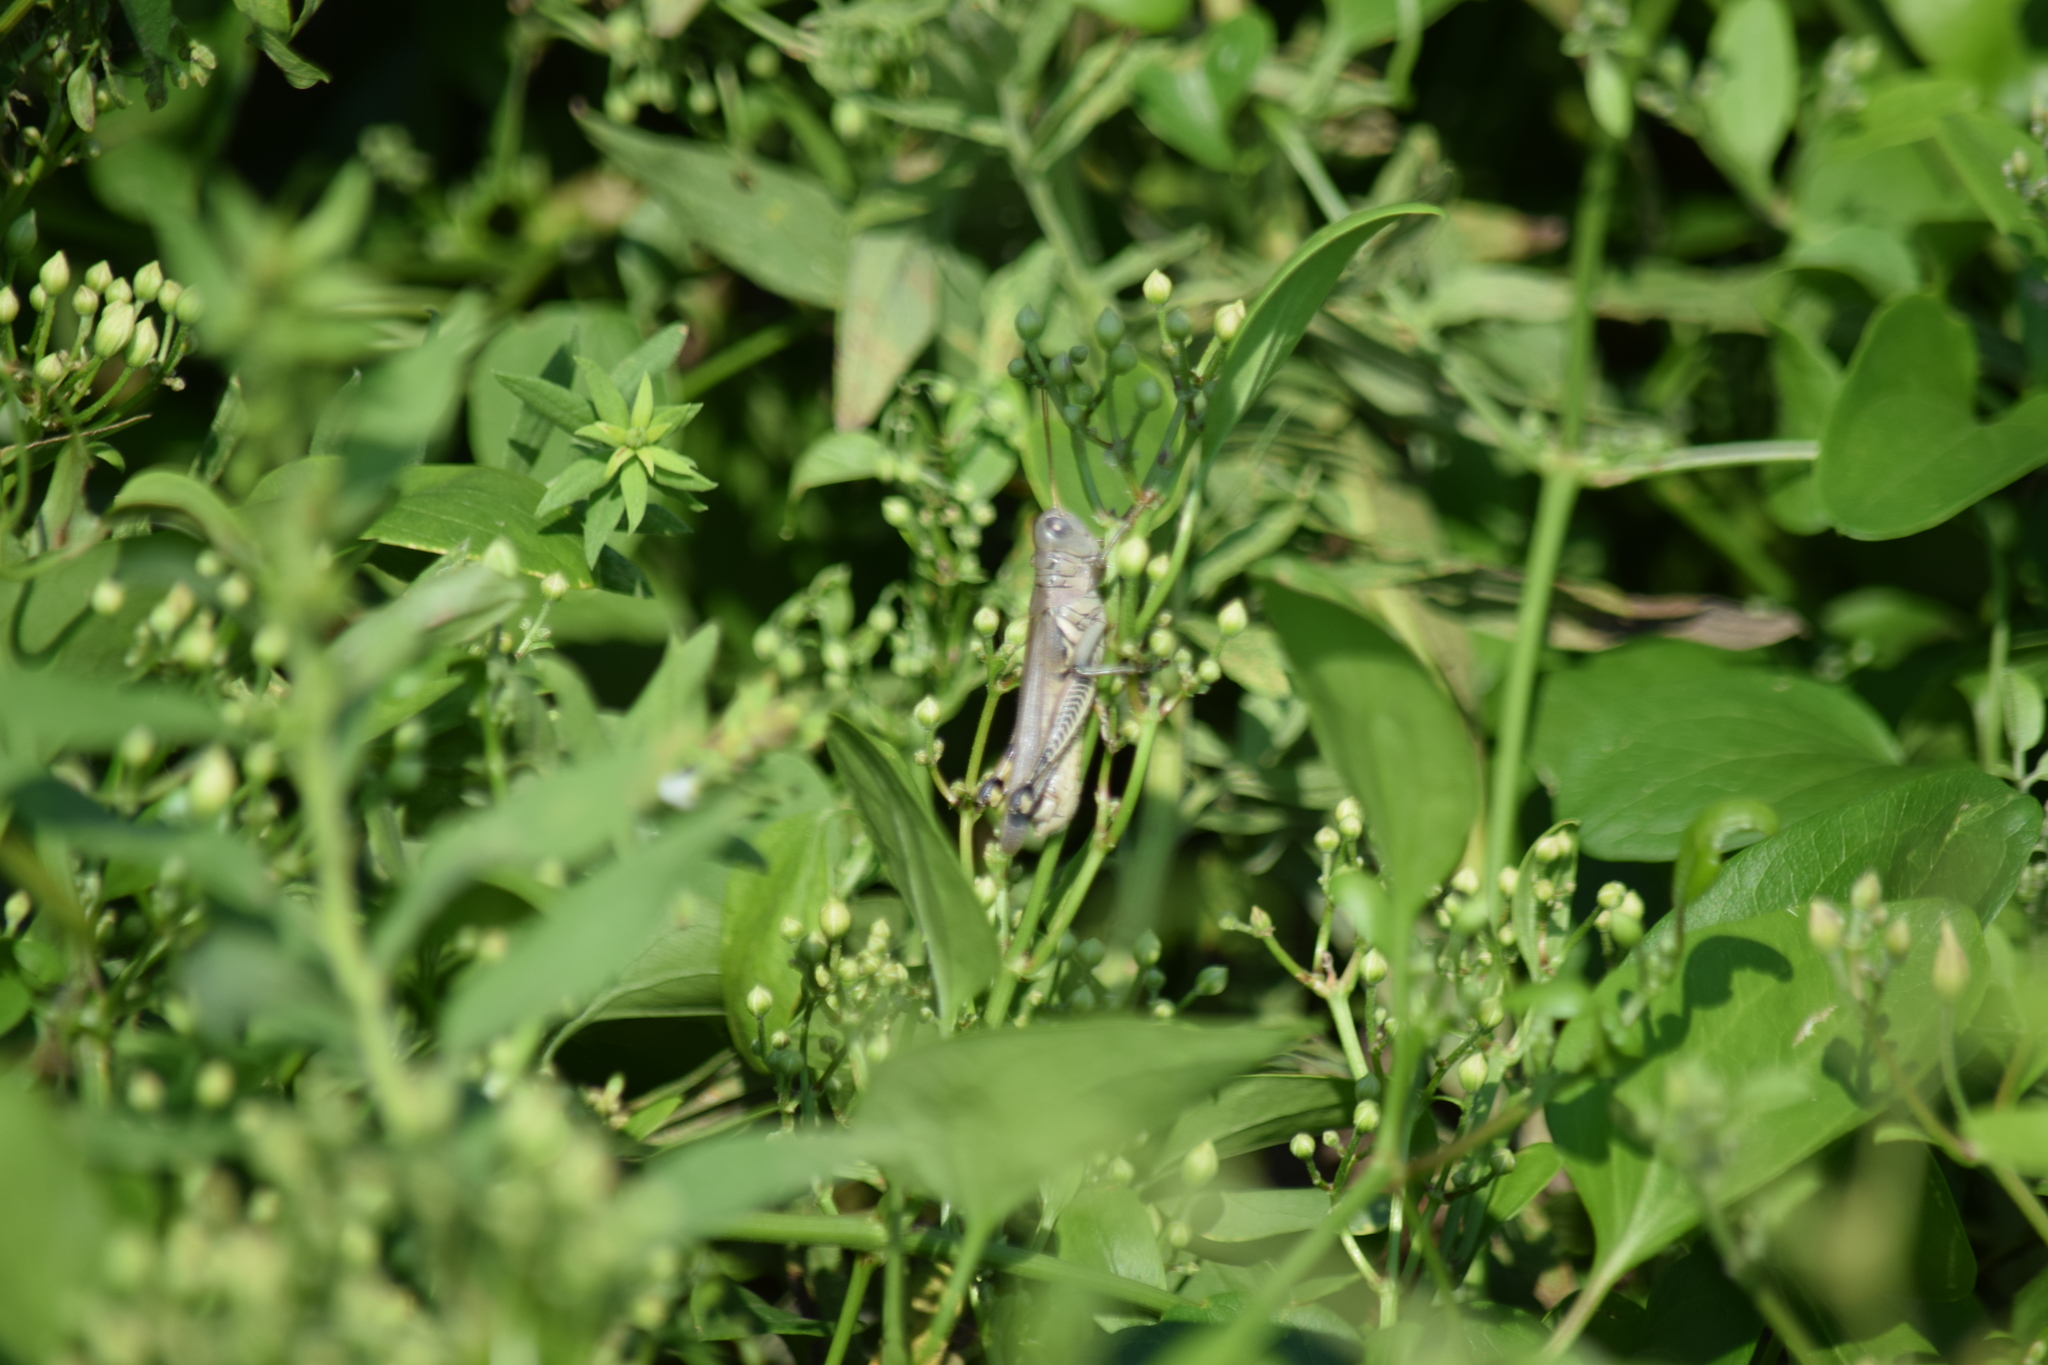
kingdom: Animalia
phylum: Arthropoda
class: Insecta
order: Orthoptera
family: Acrididae
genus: Melanoplus
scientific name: Melanoplus differentialis
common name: Differential grasshopper
